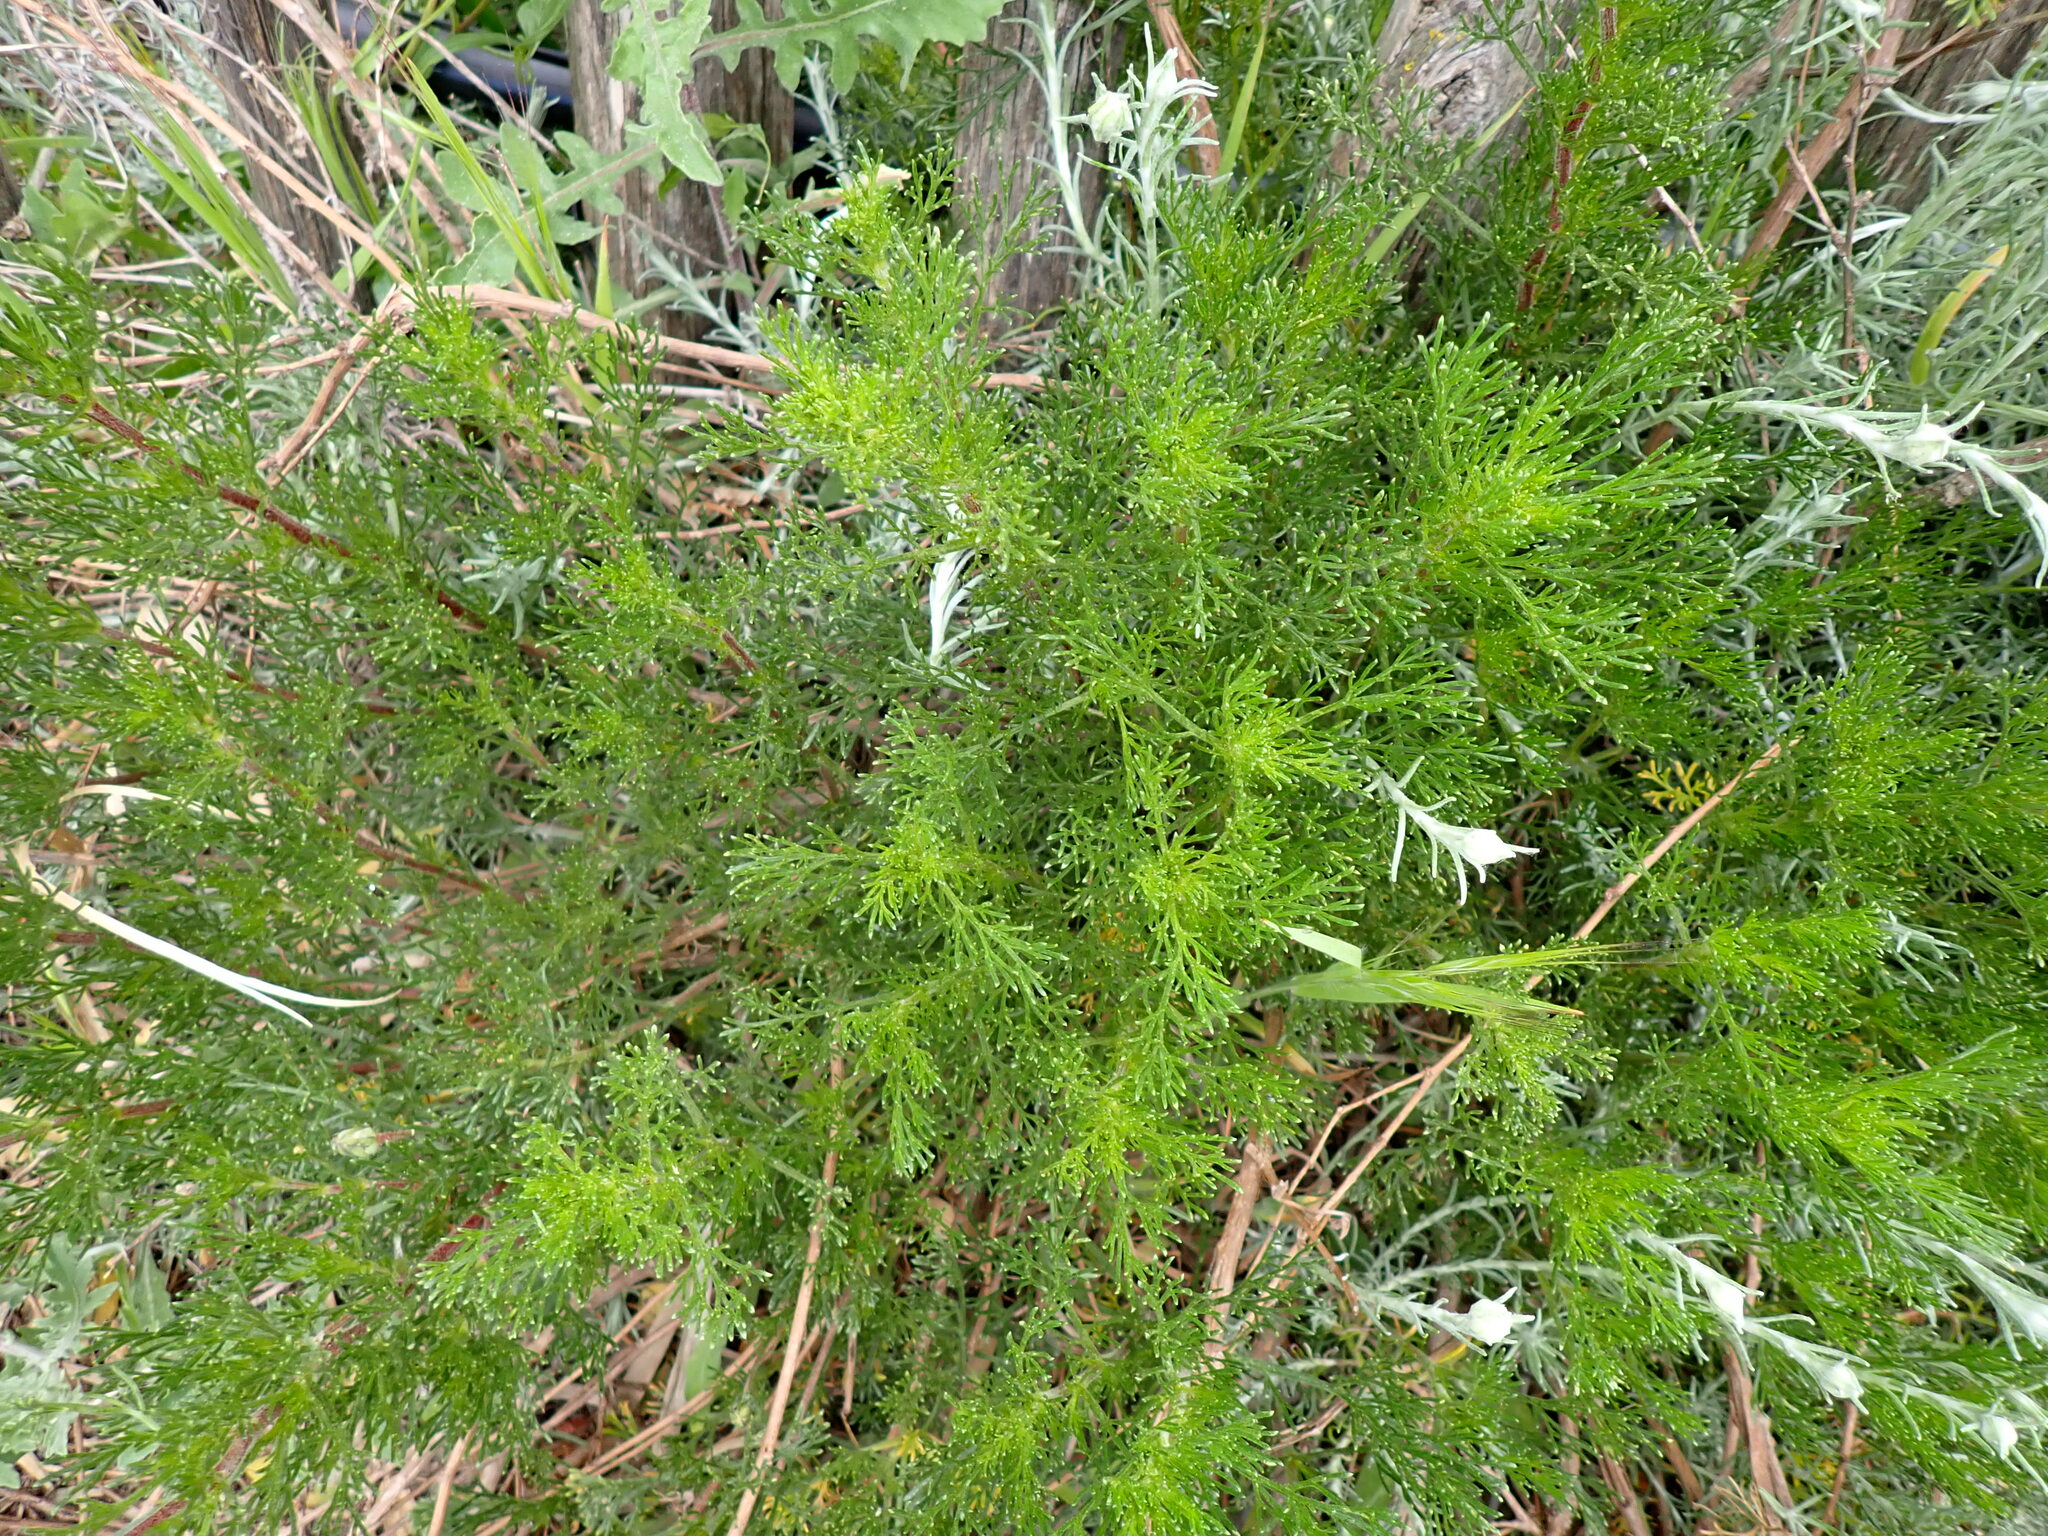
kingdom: Plantae
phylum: Tracheophyta
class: Magnoliopsida
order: Asterales
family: Asteraceae
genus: Artemisia
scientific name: Artemisia campestris
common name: Field wormwood
